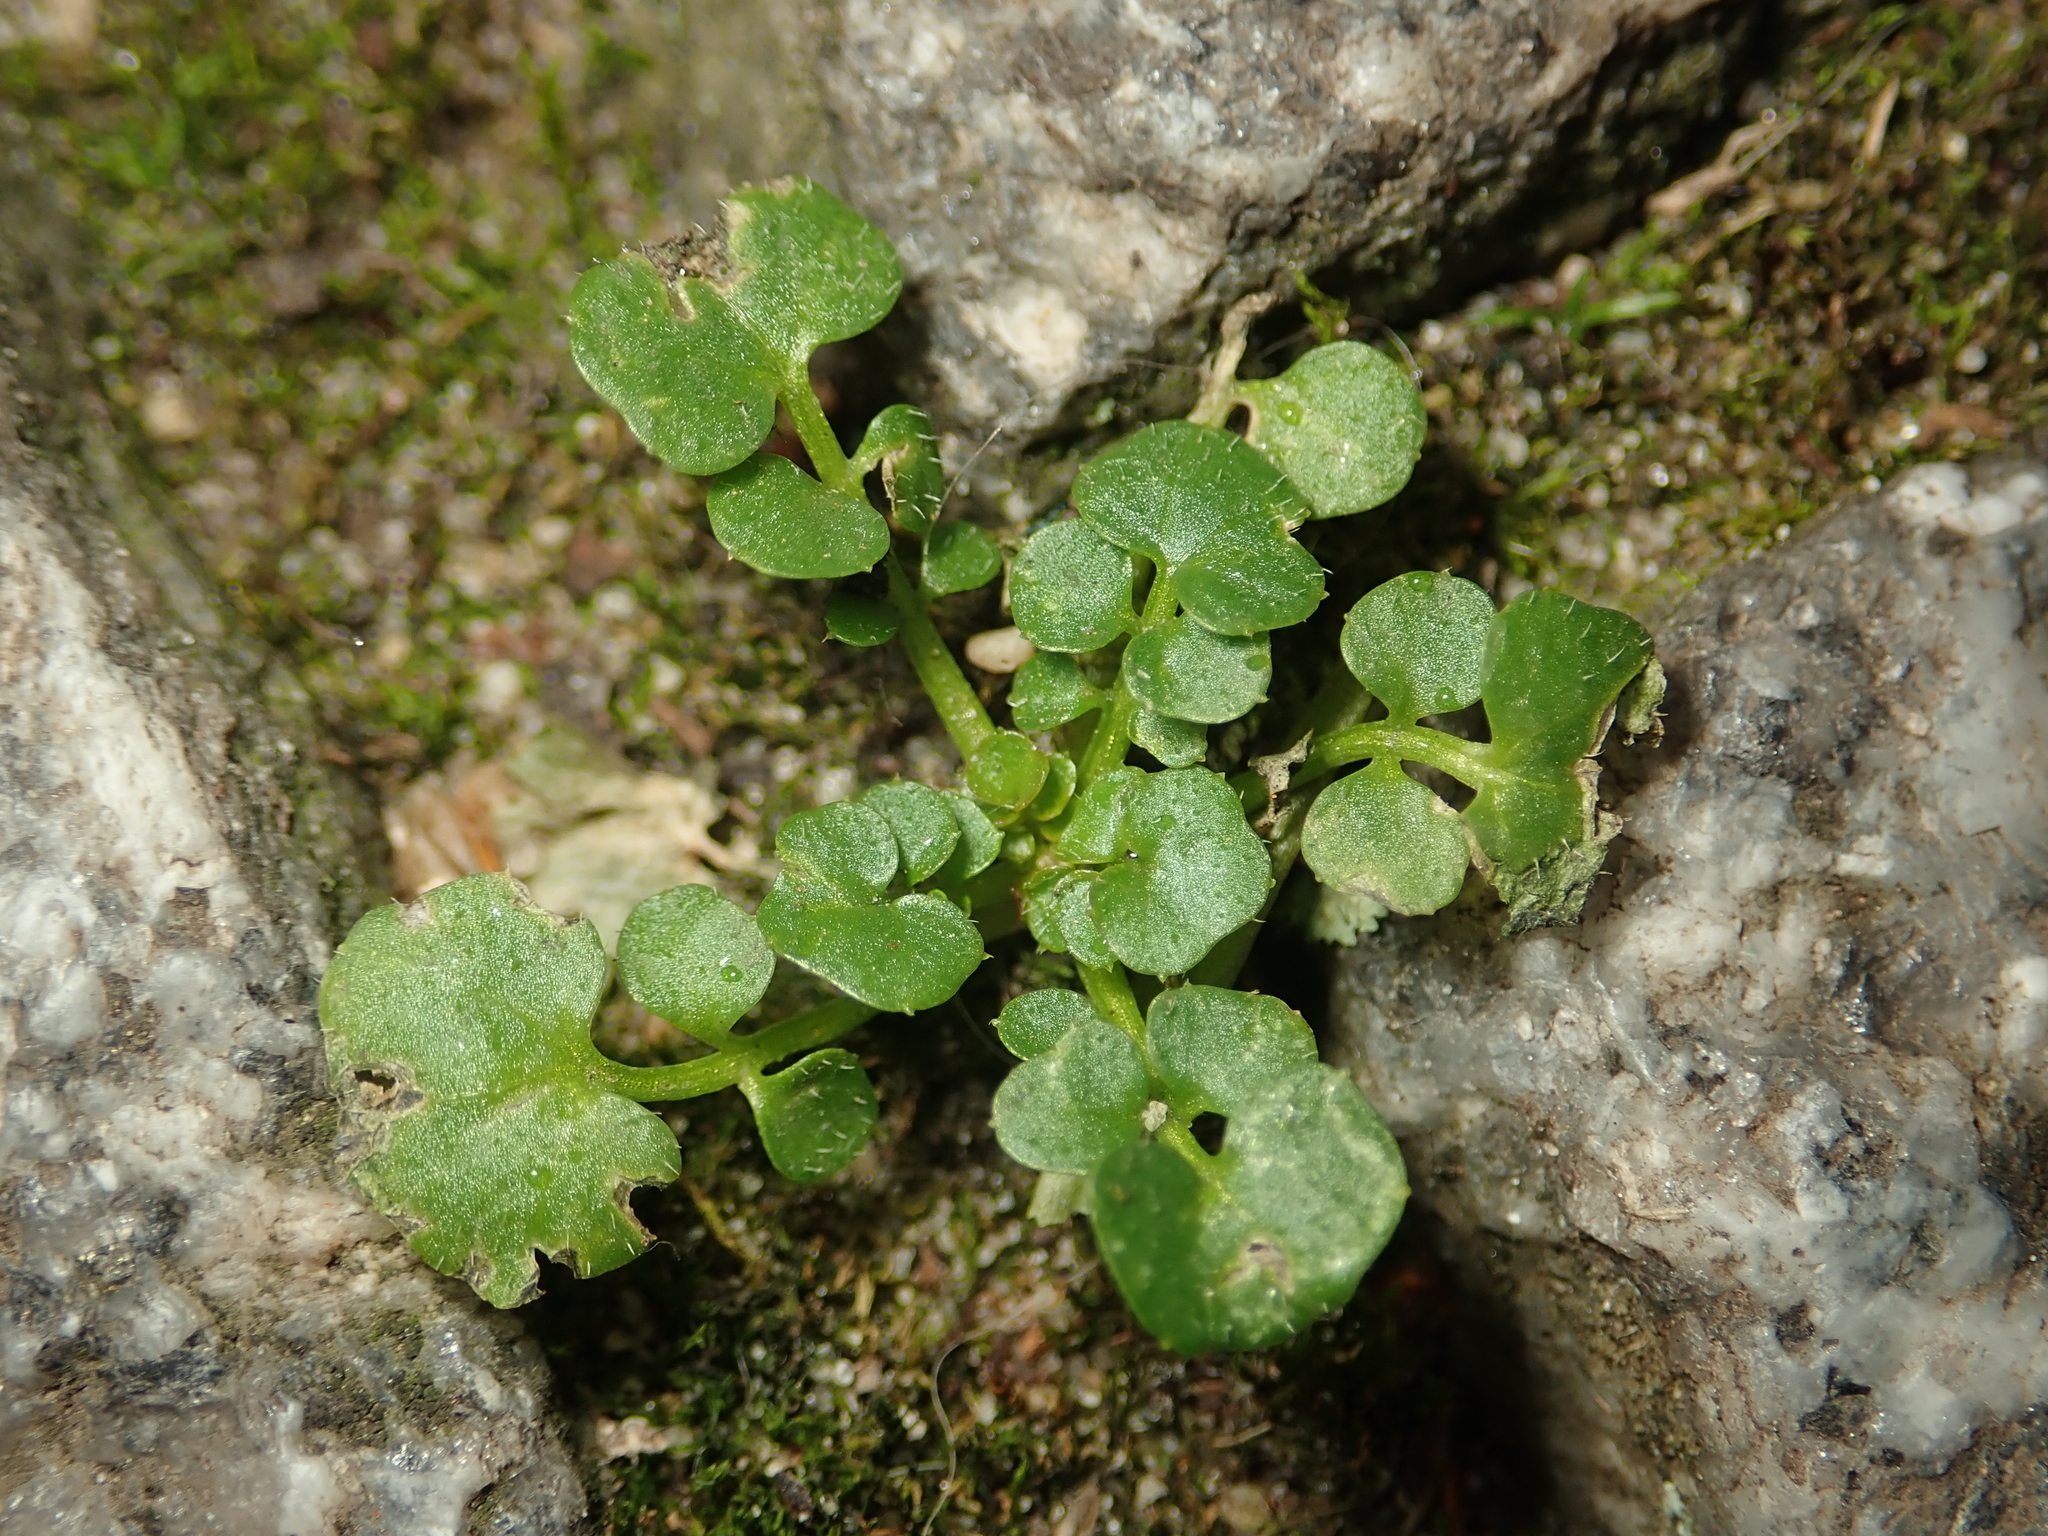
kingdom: Plantae
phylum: Tracheophyta
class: Magnoliopsida
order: Brassicales
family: Brassicaceae
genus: Cardamine
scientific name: Cardamine hirsuta
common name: Hairy bittercress
